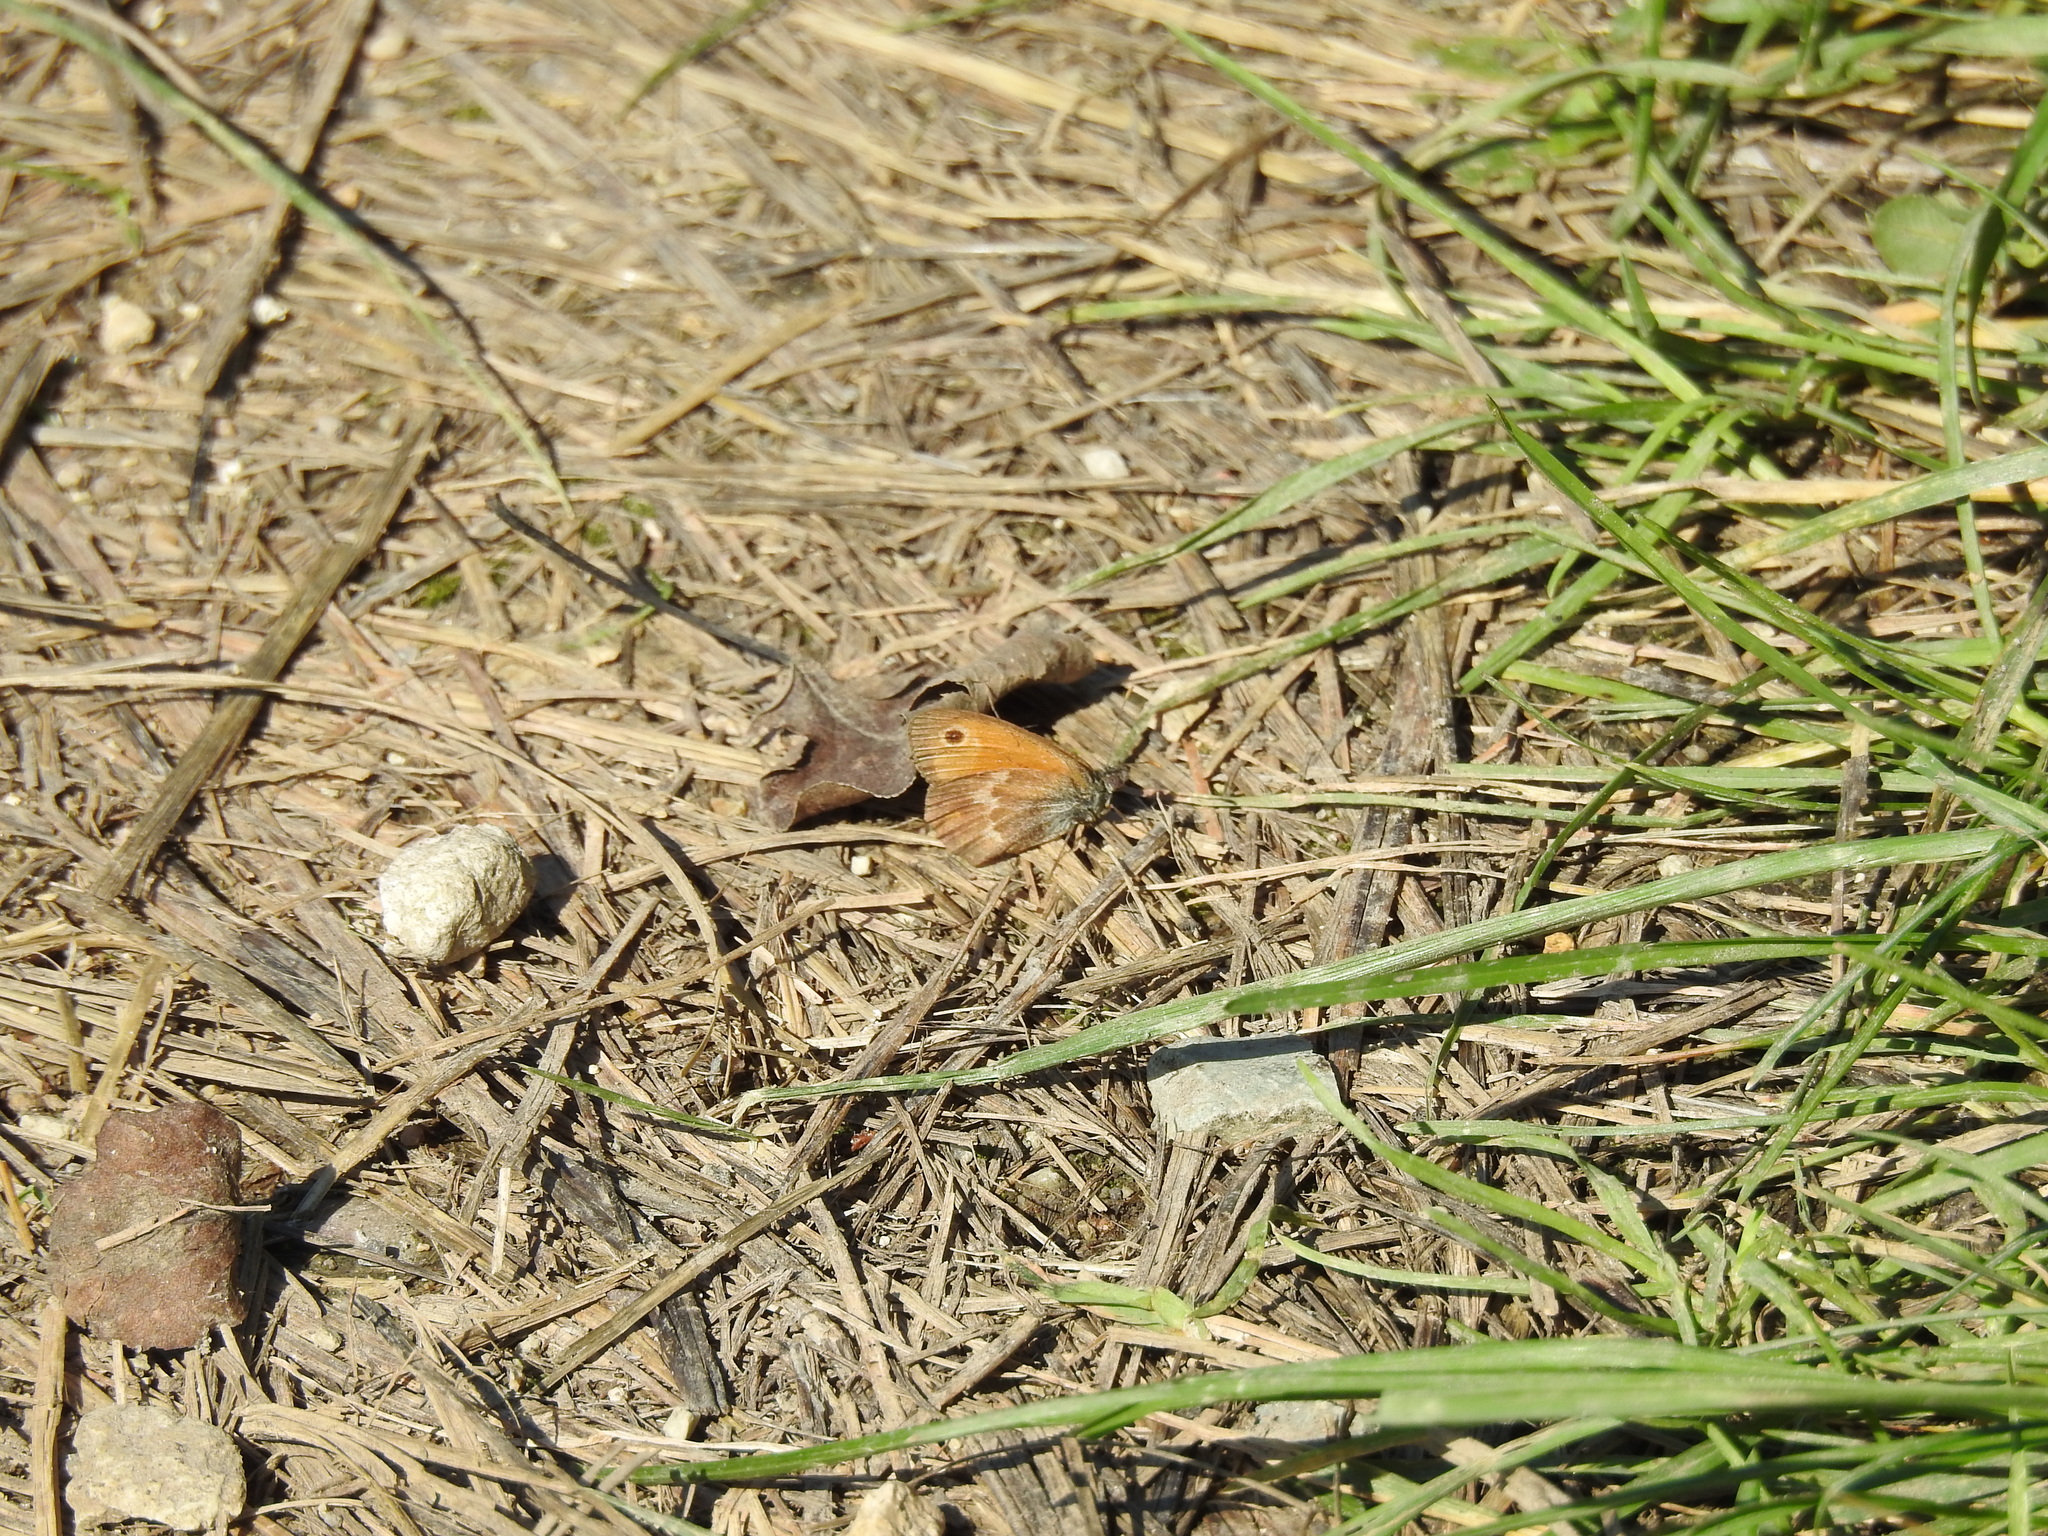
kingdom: Animalia
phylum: Arthropoda
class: Insecta
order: Lepidoptera
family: Nymphalidae
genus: Coenonympha
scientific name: Coenonympha pamphilus
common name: Small heath
